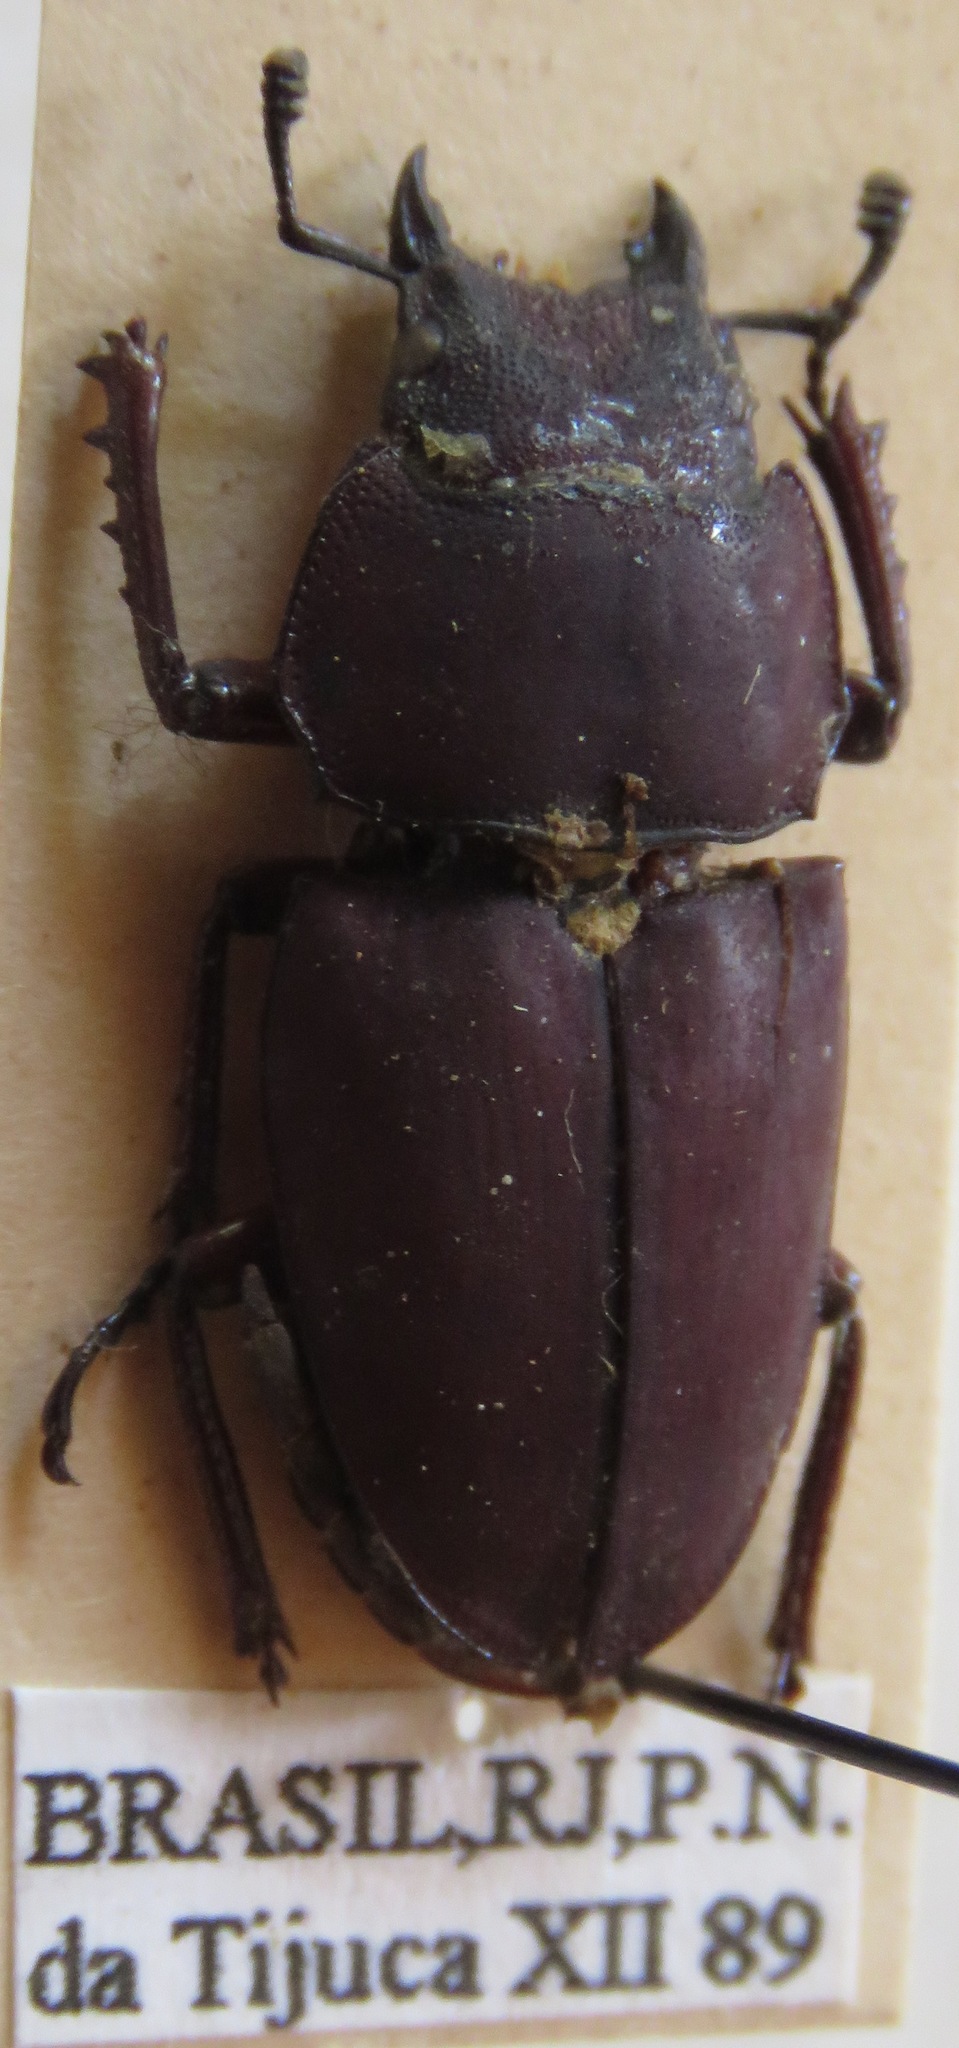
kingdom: Animalia
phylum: Arthropoda
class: Insecta
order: Coleoptera
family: Lucanidae
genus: Leptinopterus
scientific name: Leptinopterus ibex
